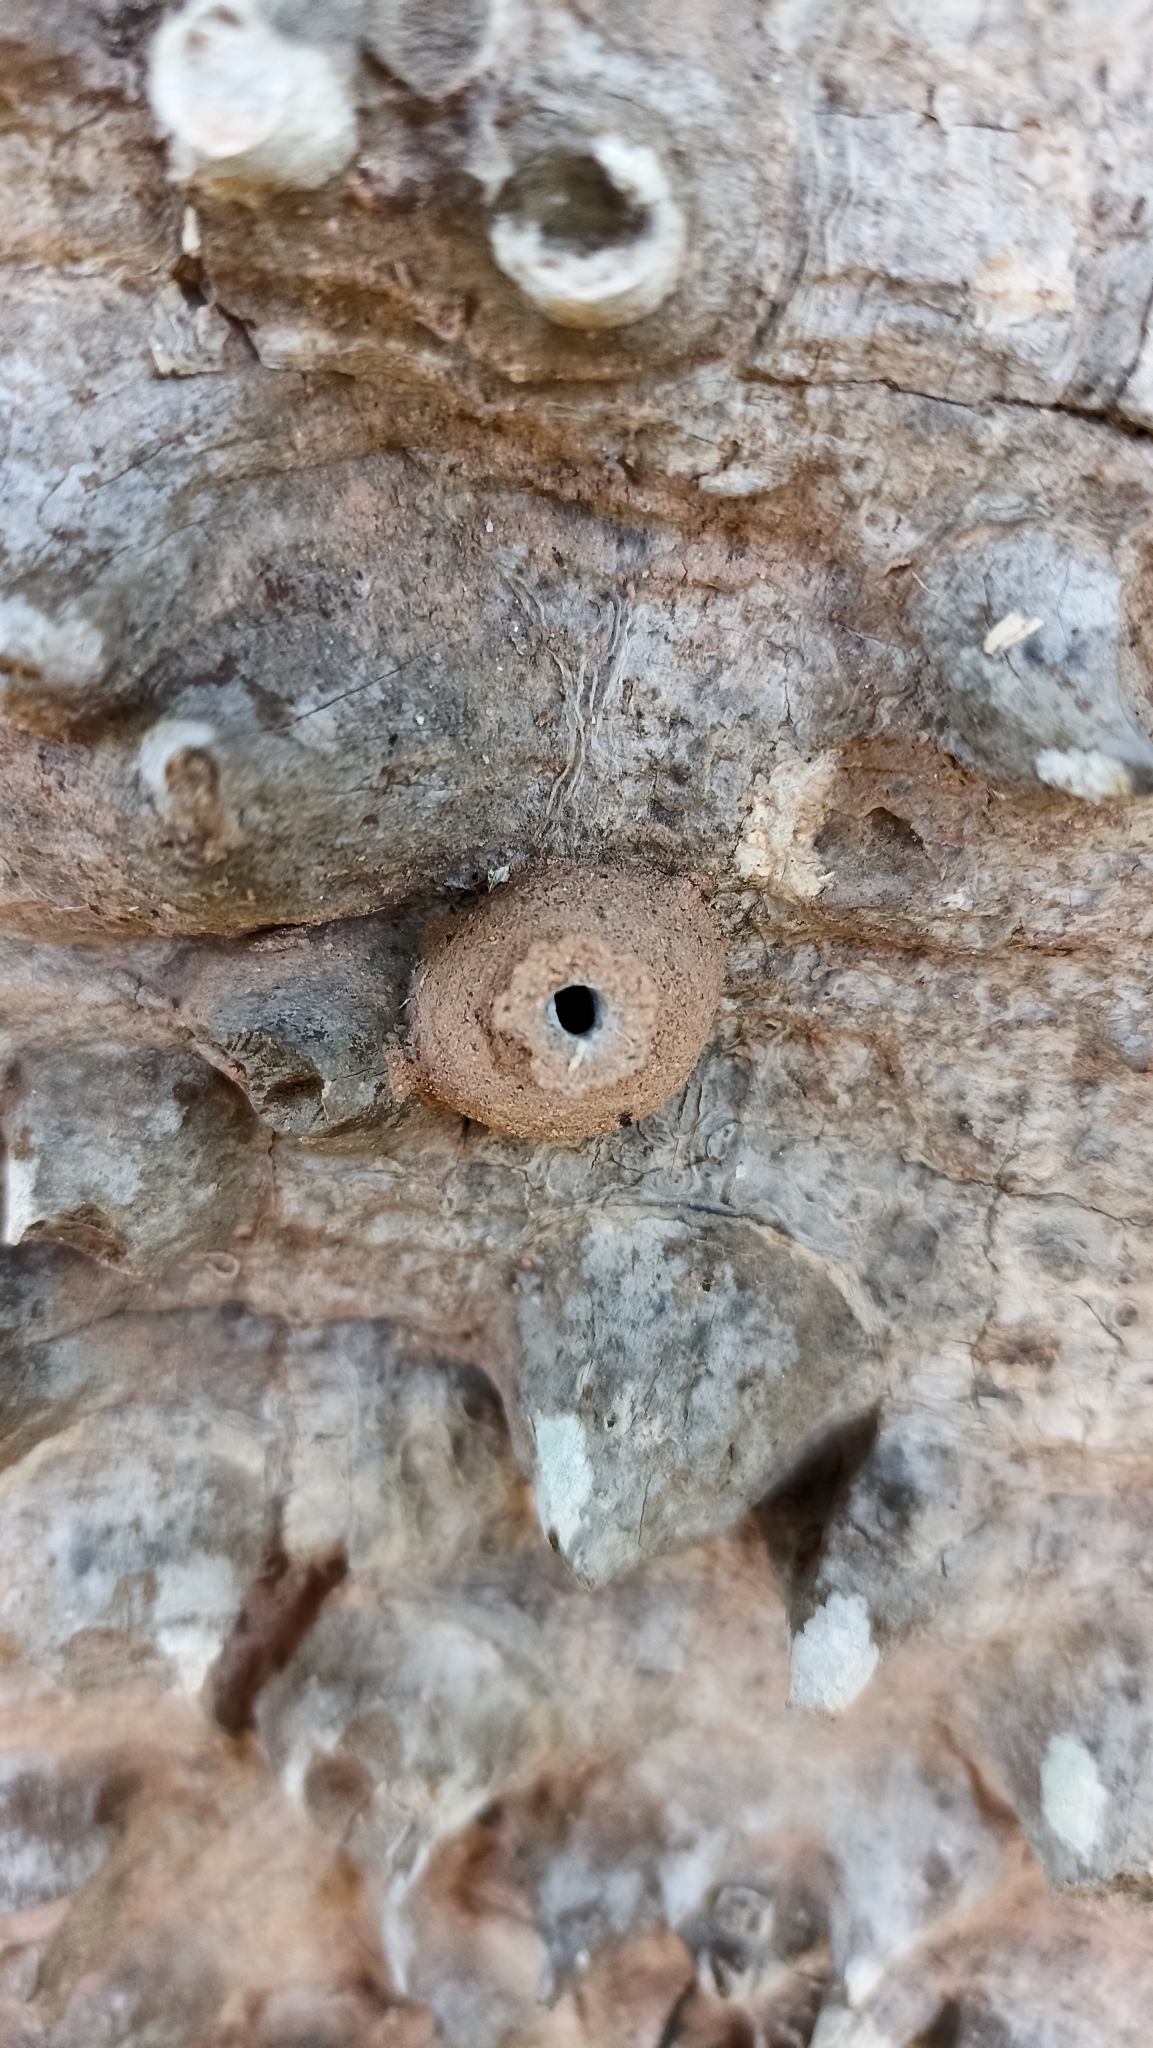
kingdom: Animalia
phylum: Arthropoda
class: Insecta
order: Hymenoptera
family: Eumenidae
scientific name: Eumenidae
